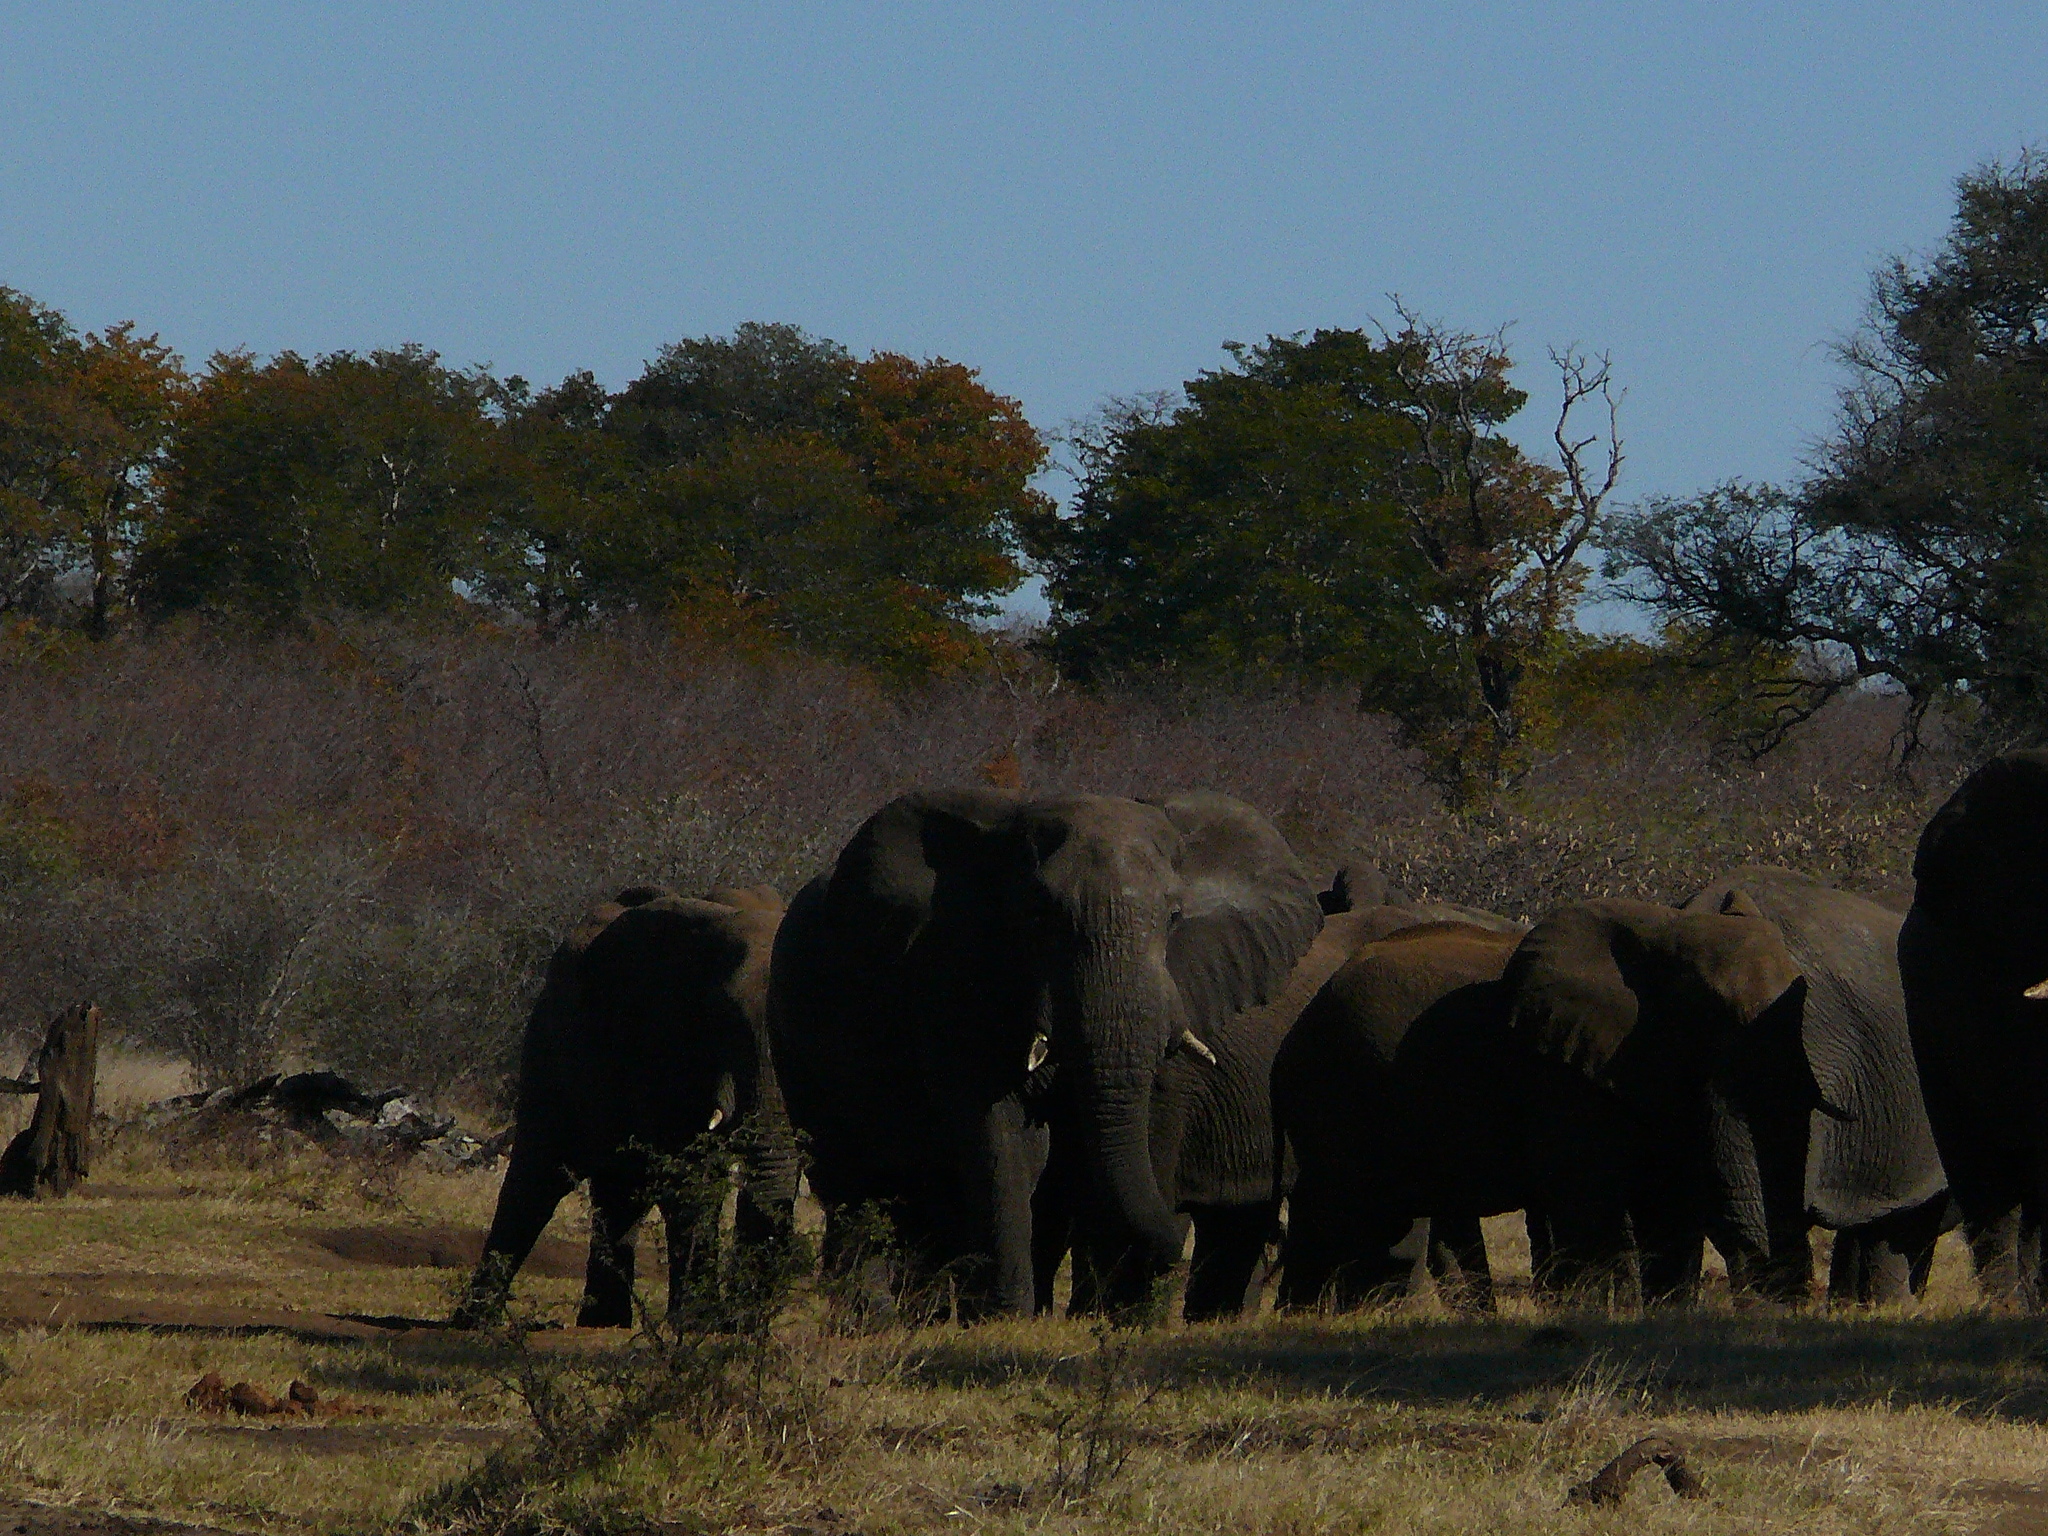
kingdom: Animalia
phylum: Chordata
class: Mammalia
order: Proboscidea
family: Elephantidae
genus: Loxodonta
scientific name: Loxodonta africana
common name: African elephant
